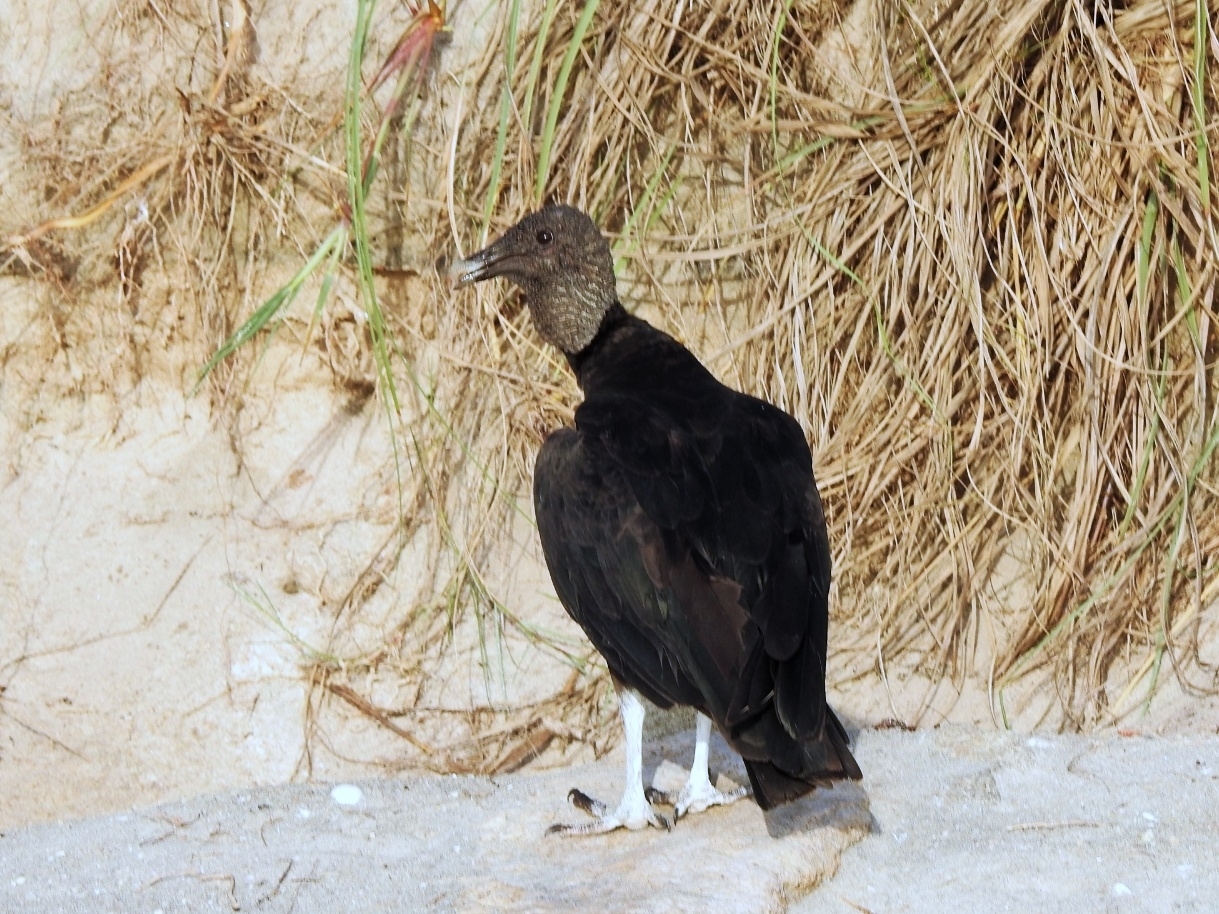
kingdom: Animalia
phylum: Chordata
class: Aves
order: Accipitriformes
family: Cathartidae
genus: Coragyps
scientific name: Coragyps atratus
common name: Black vulture
